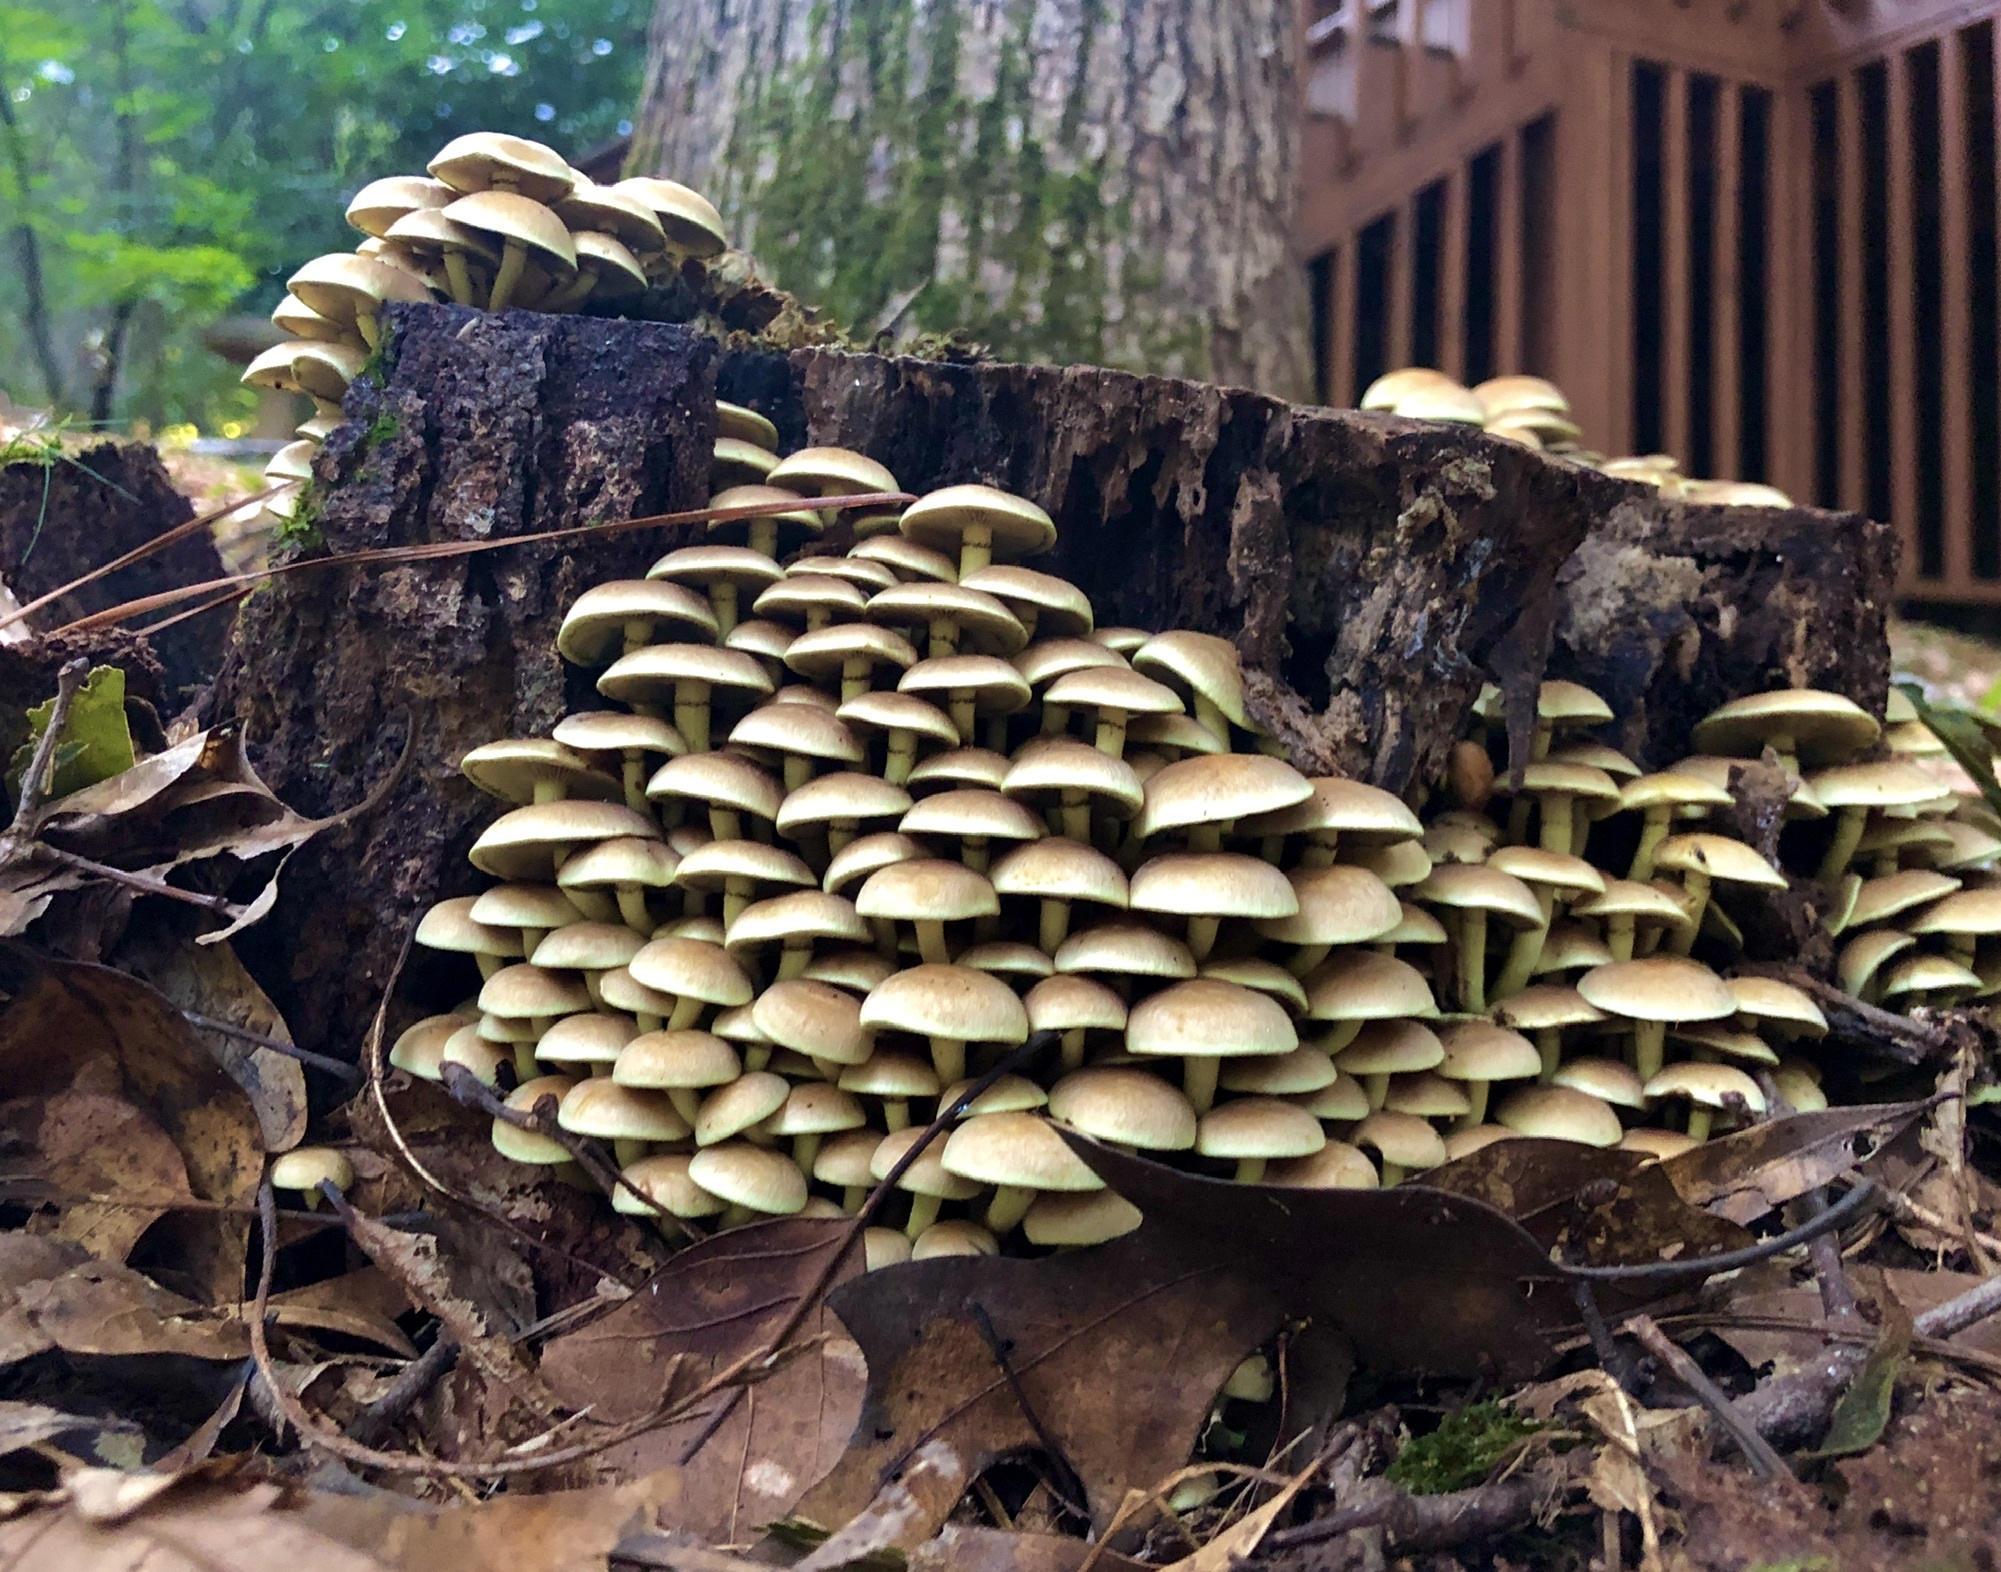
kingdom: Fungi
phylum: Basidiomycota
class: Agaricomycetes
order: Agaricales
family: Strophariaceae
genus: Hypholoma
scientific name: Hypholoma fasciculare
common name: Sulphur tuft
